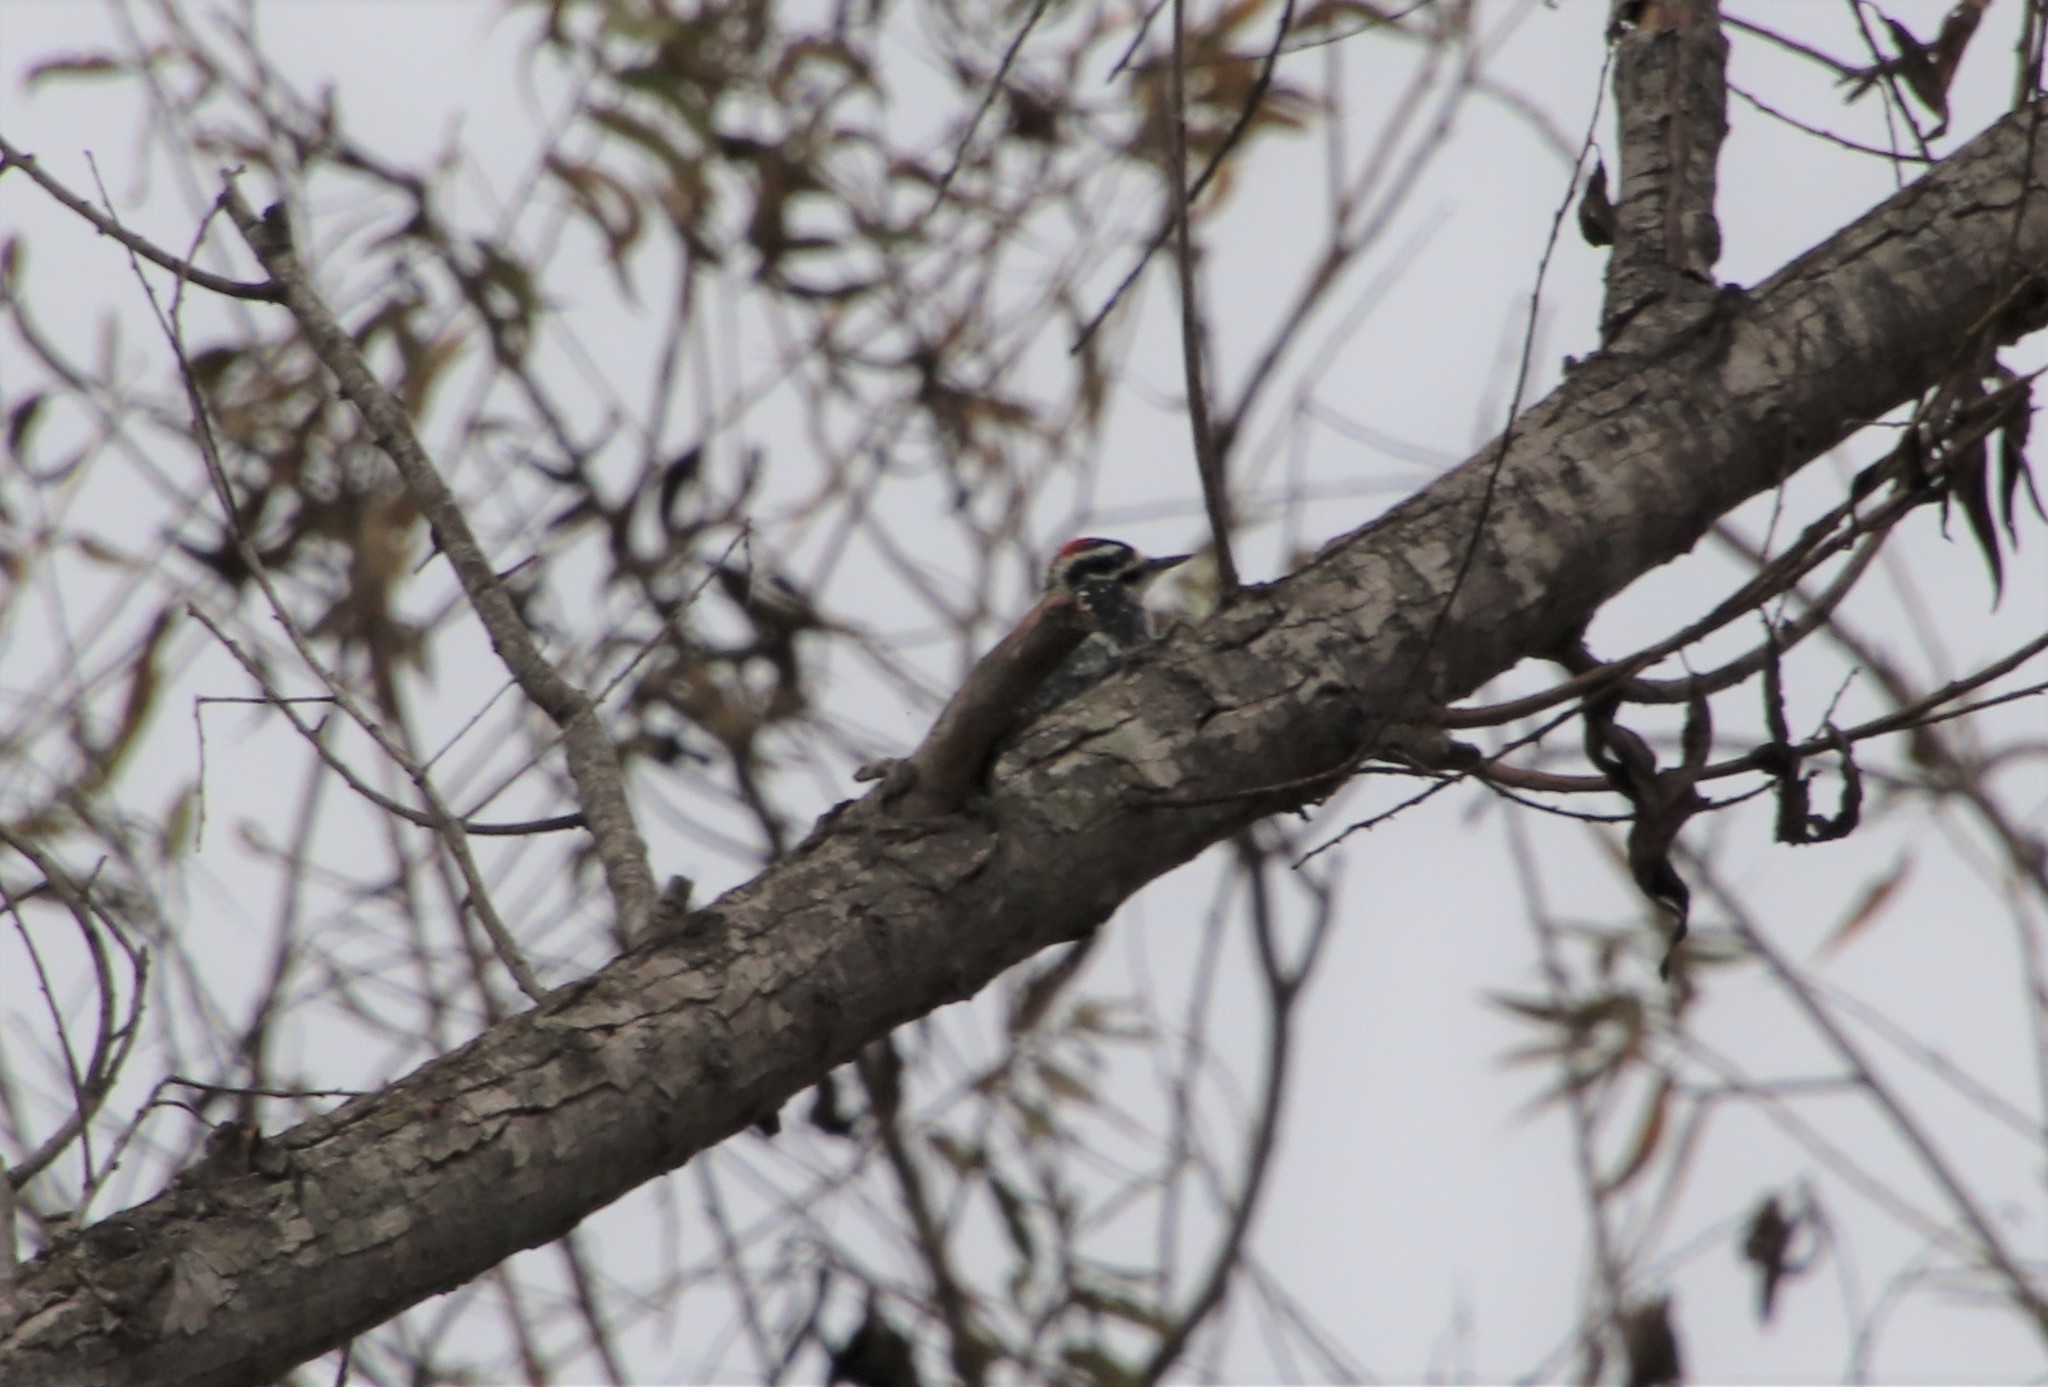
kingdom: Animalia
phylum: Chordata
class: Aves
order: Piciformes
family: Picidae
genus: Dryobates
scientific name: Dryobates nuttallii
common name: Nuttall's woodpecker
